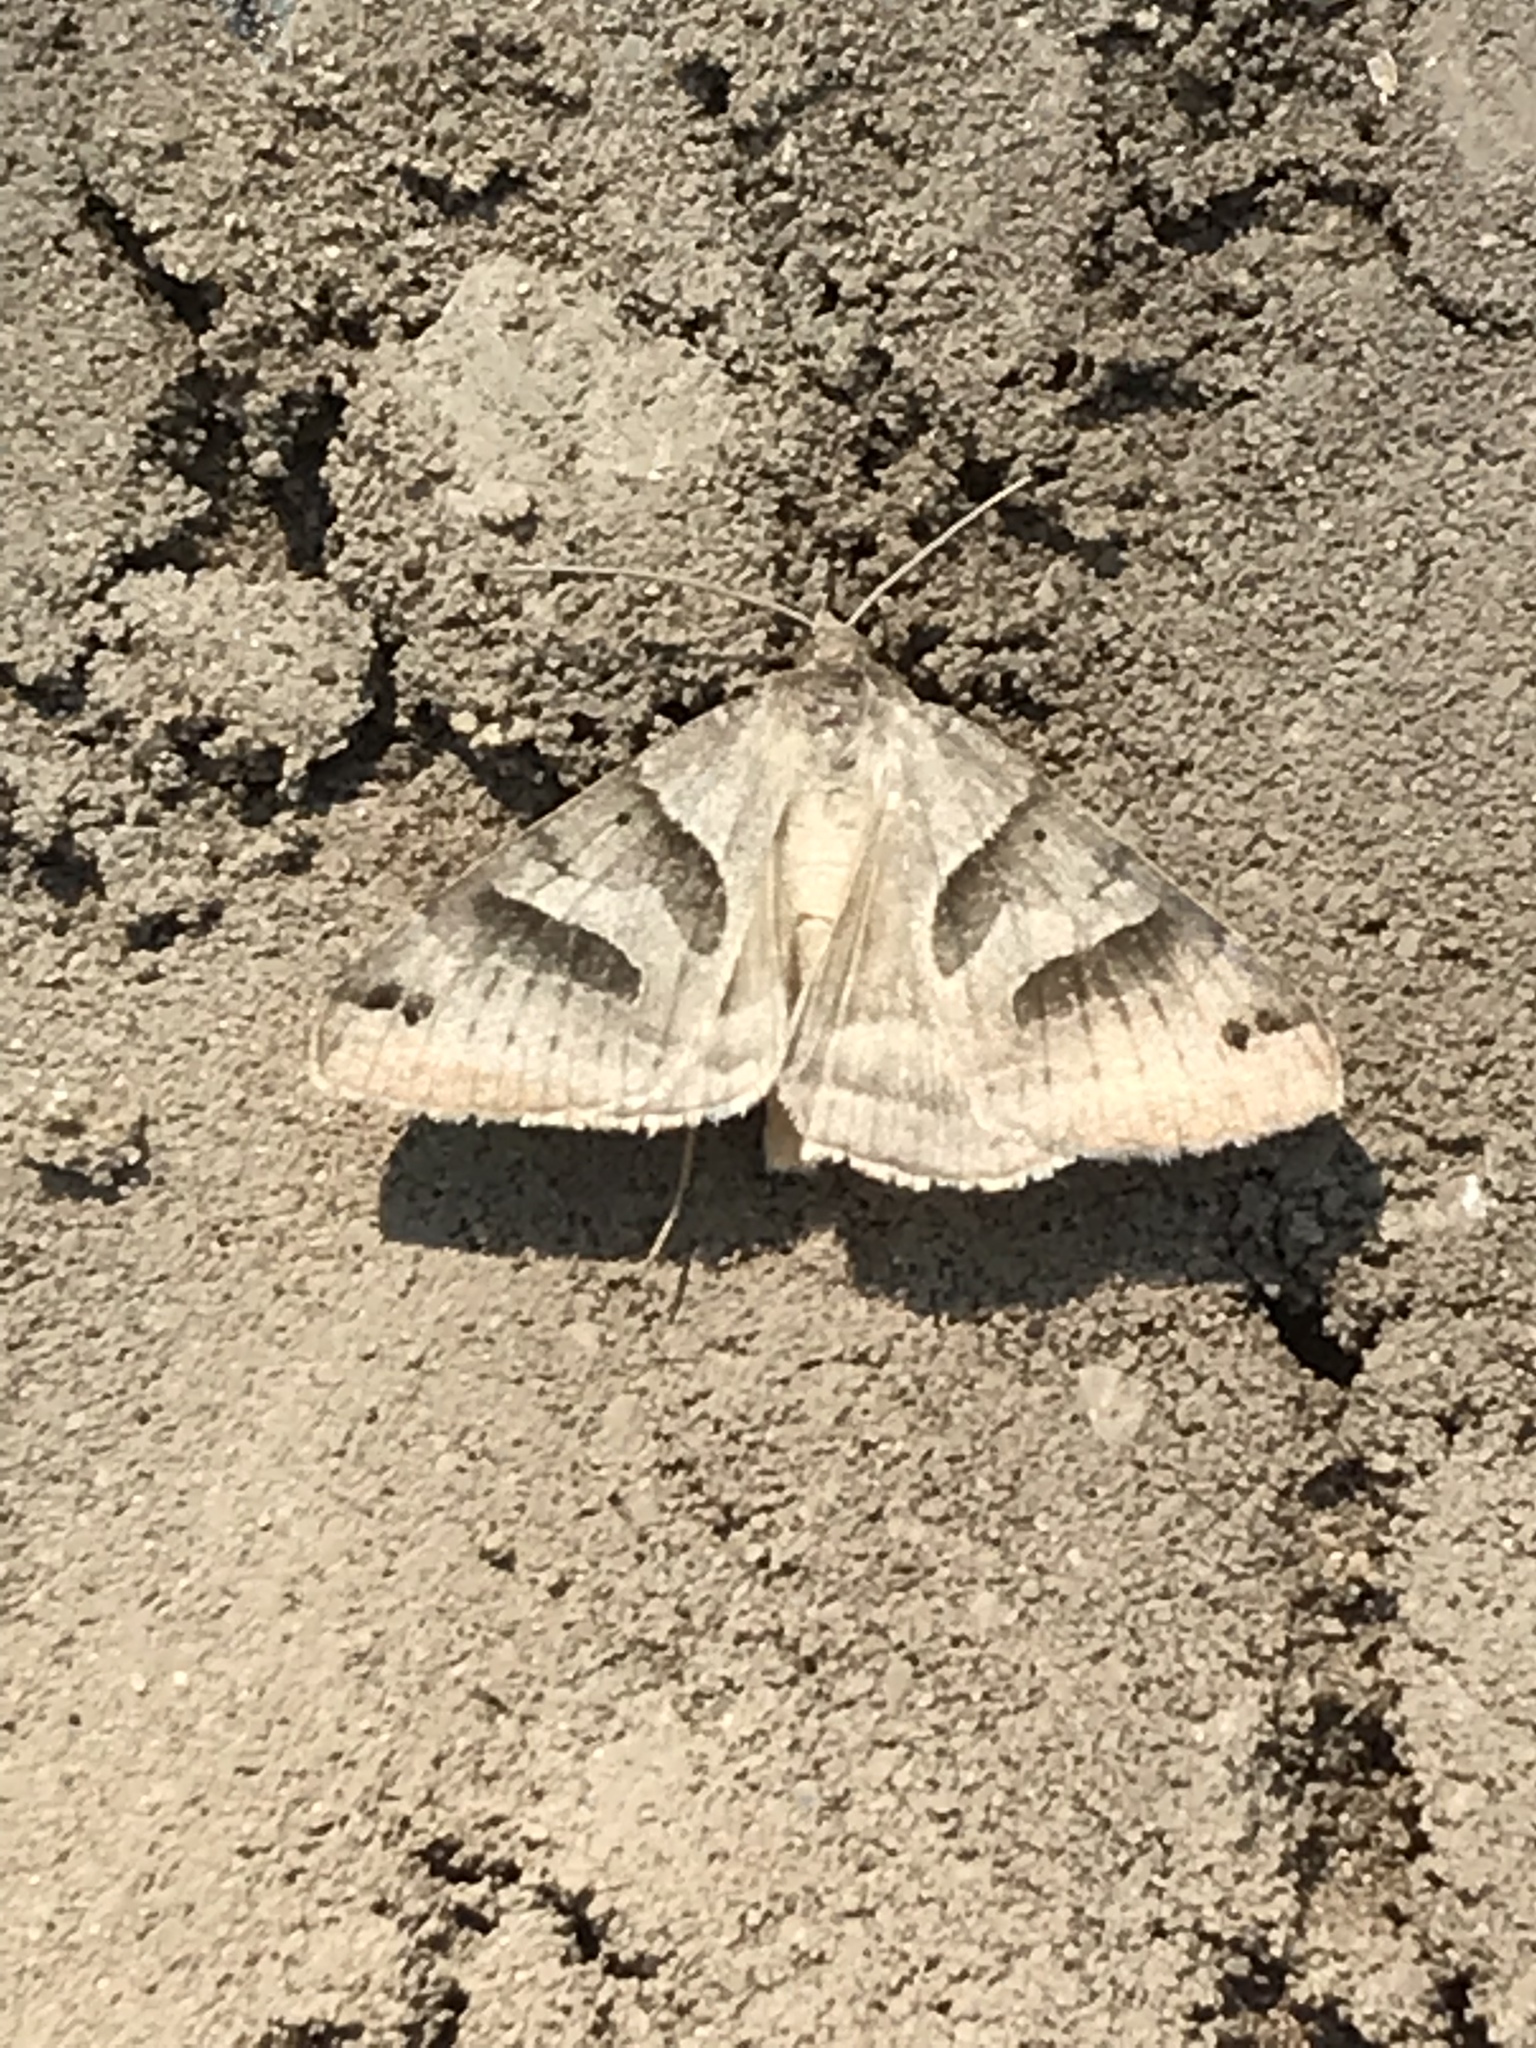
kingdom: Animalia
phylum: Arthropoda
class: Insecta
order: Lepidoptera
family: Erebidae
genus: Caenurgina
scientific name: Caenurgina erechtea
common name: Forage looper moth
